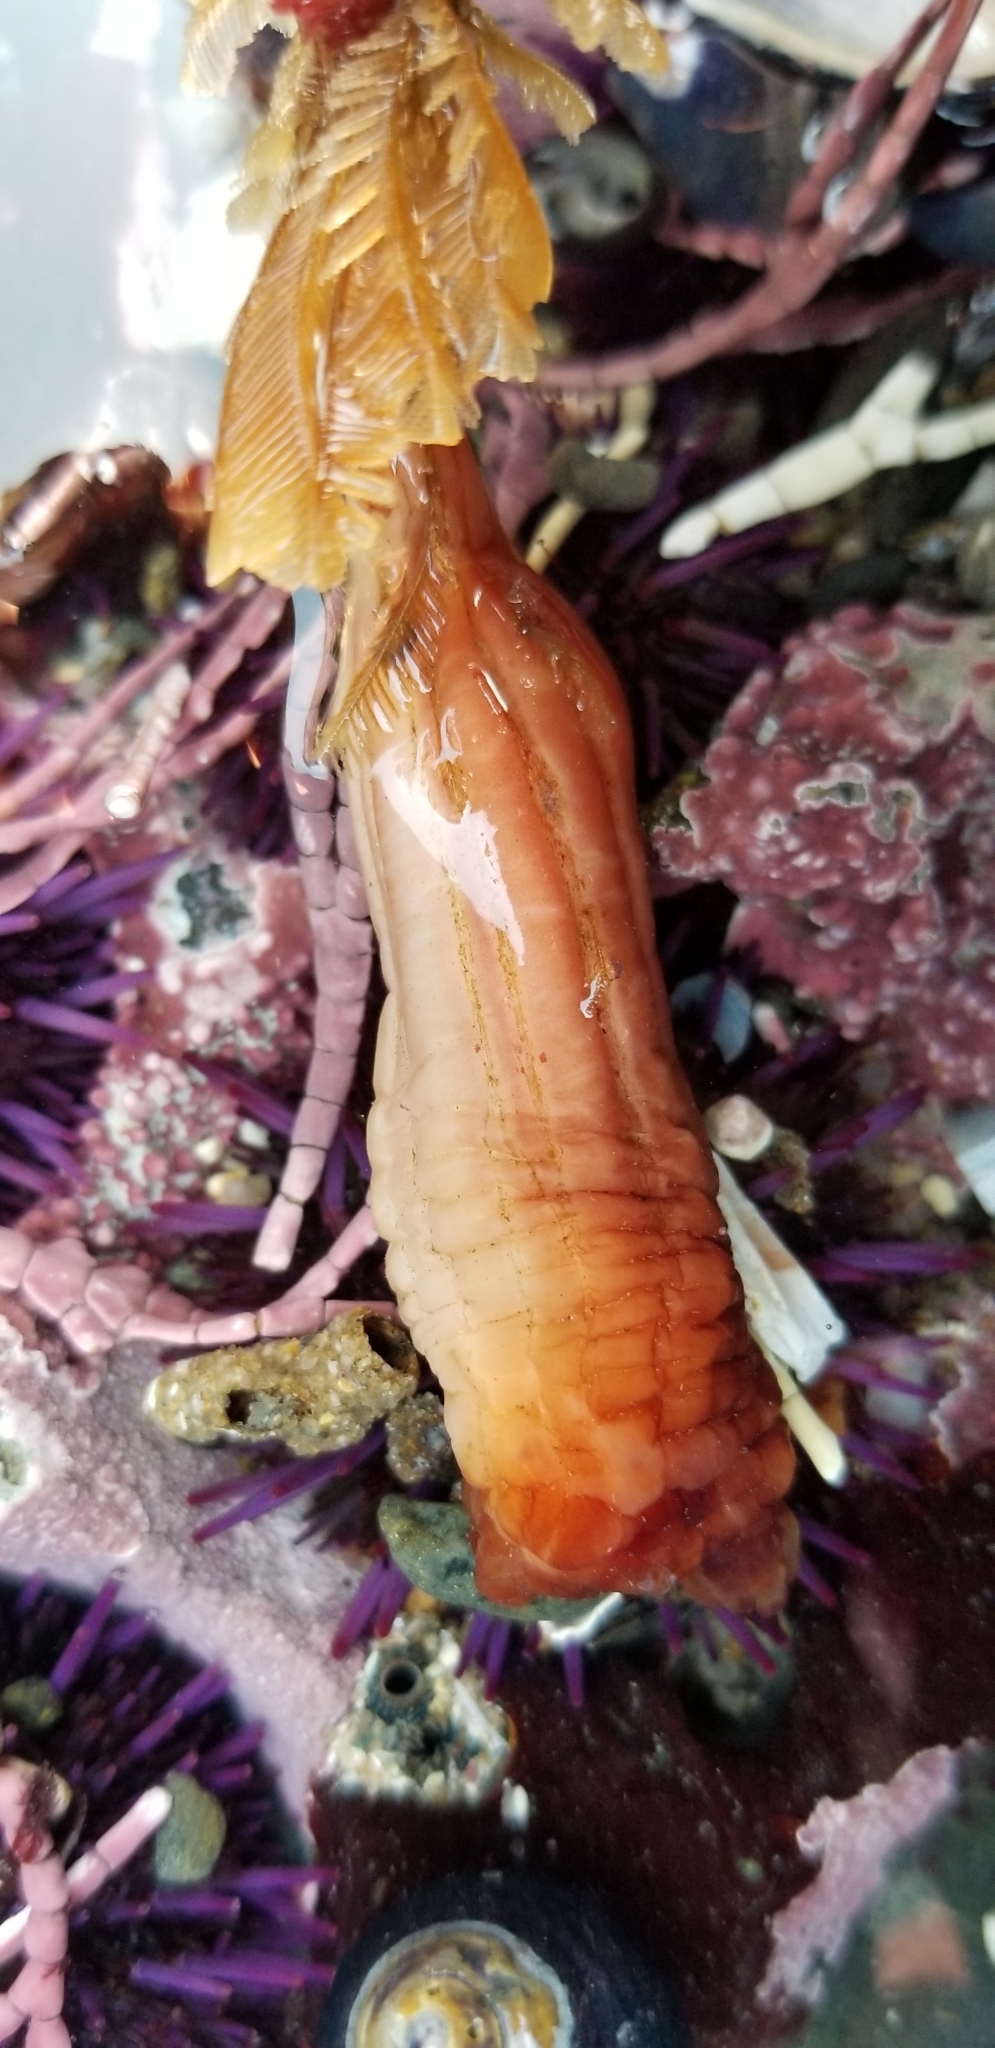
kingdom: Animalia
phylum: Chordata
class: Ascidiacea
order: Stolidobranchia
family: Styelidae
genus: Styela
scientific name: Styela montereyensis
